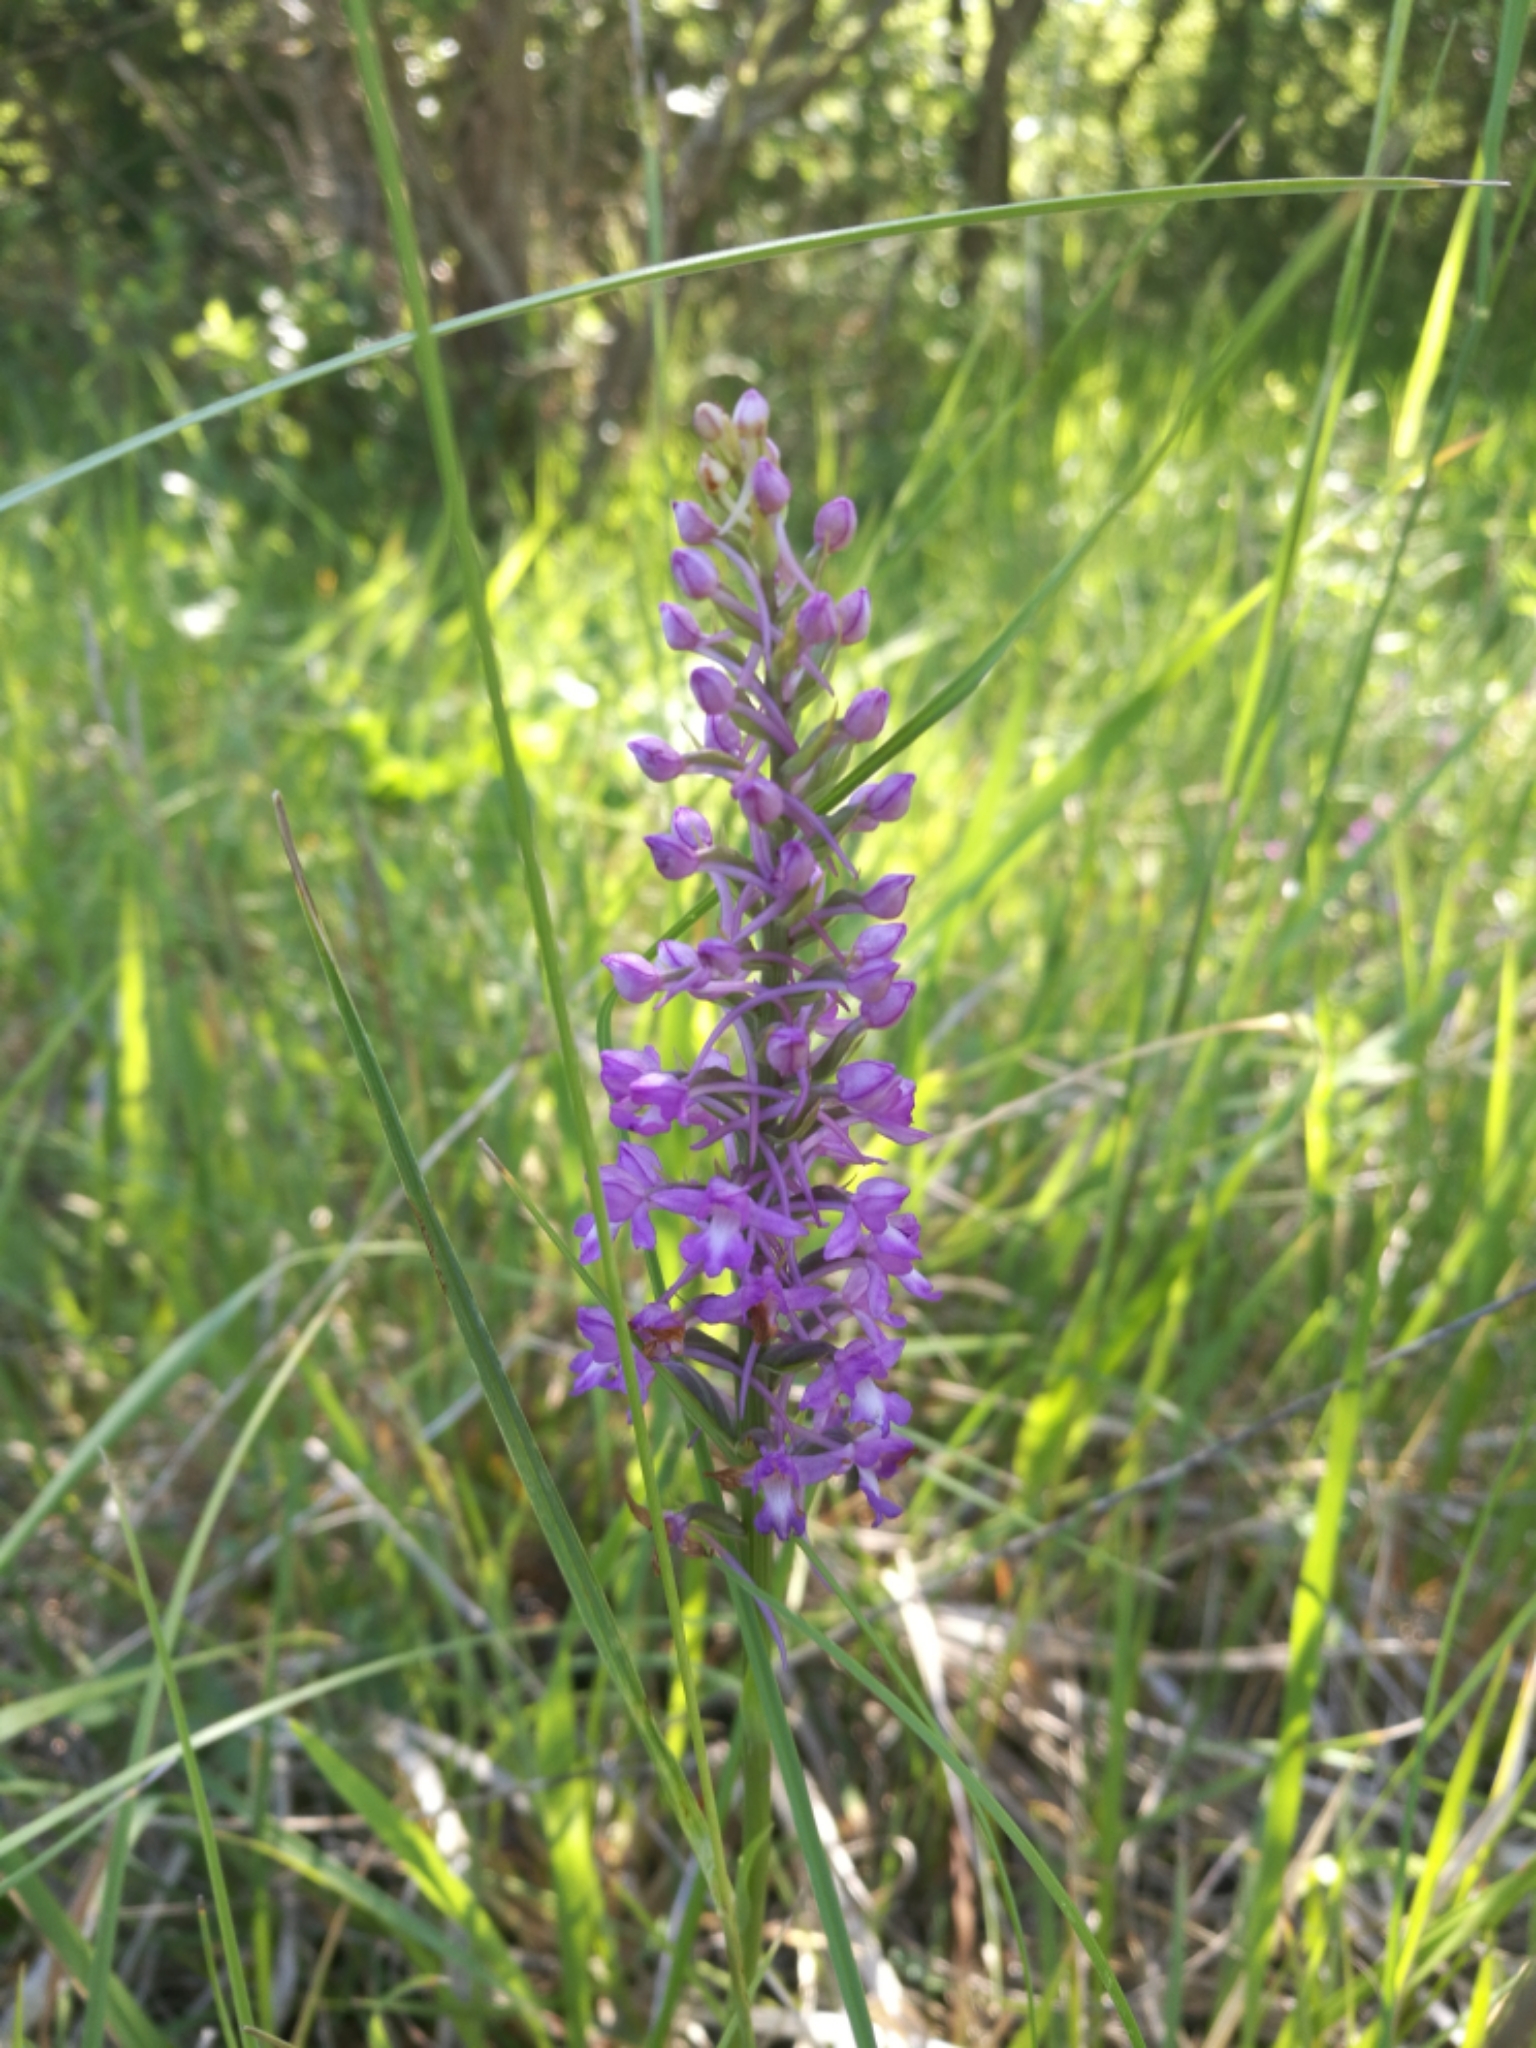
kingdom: Plantae
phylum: Tracheophyta
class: Liliopsida
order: Asparagales
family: Orchidaceae
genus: Gymnadenia
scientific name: Gymnadenia conopsea
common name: Fragrant orchid
